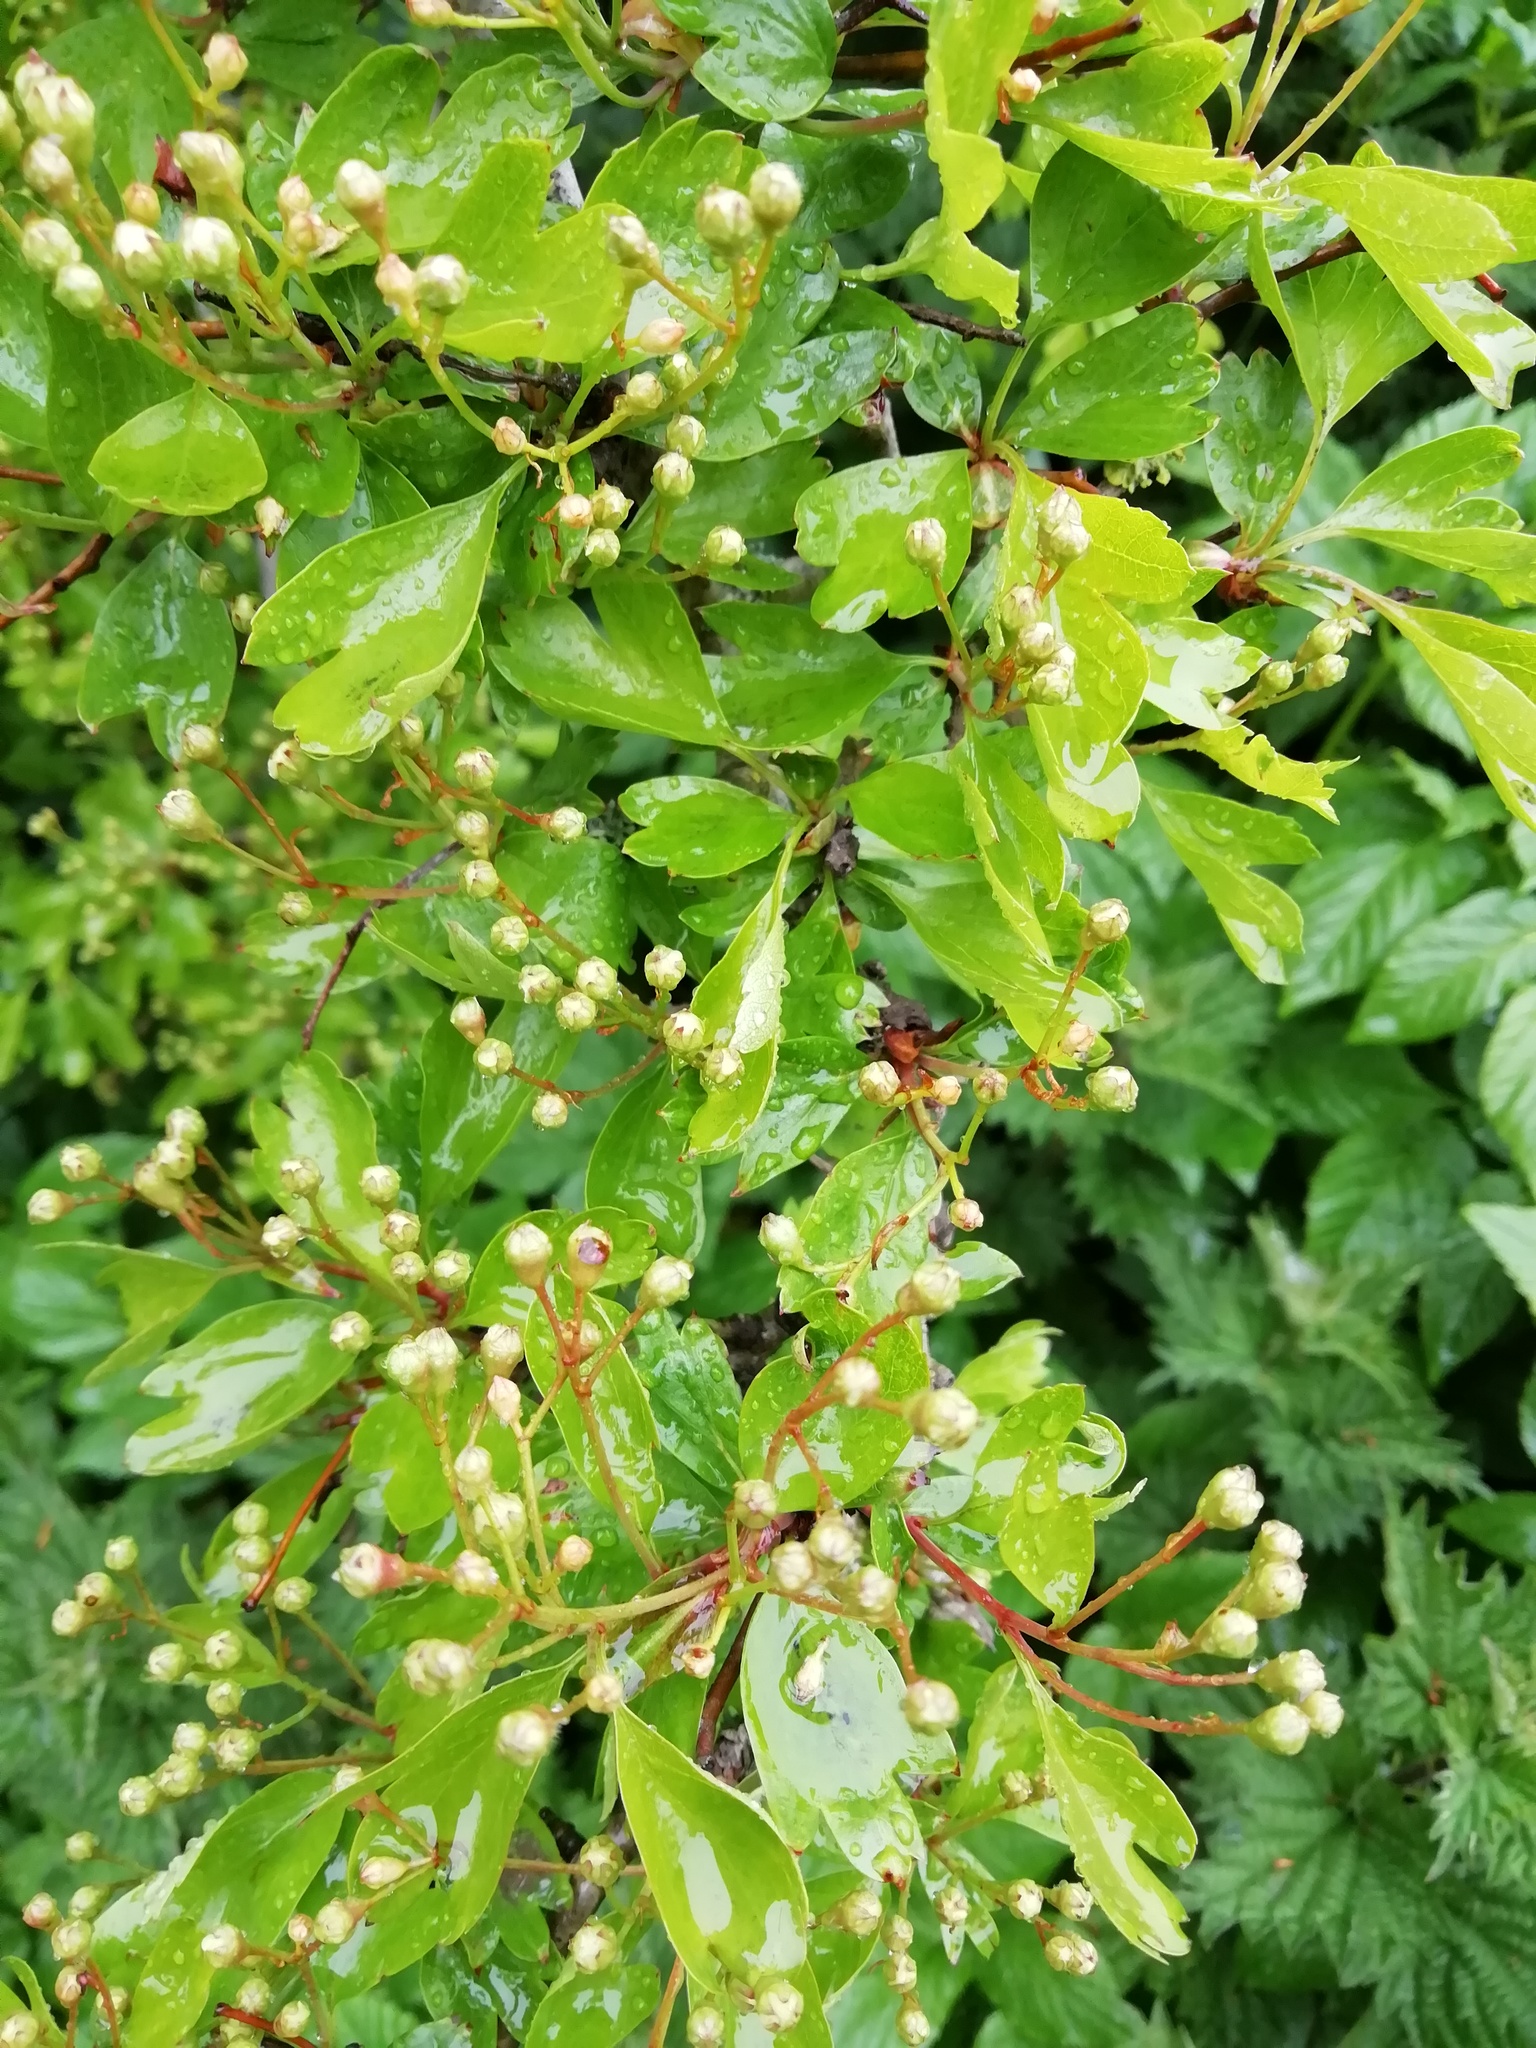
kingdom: Plantae
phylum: Tracheophyta
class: Magnoliopsida
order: Rosales
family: Rosaceae
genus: Crataegus
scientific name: Crataegus monogyna
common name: Hawthorn
